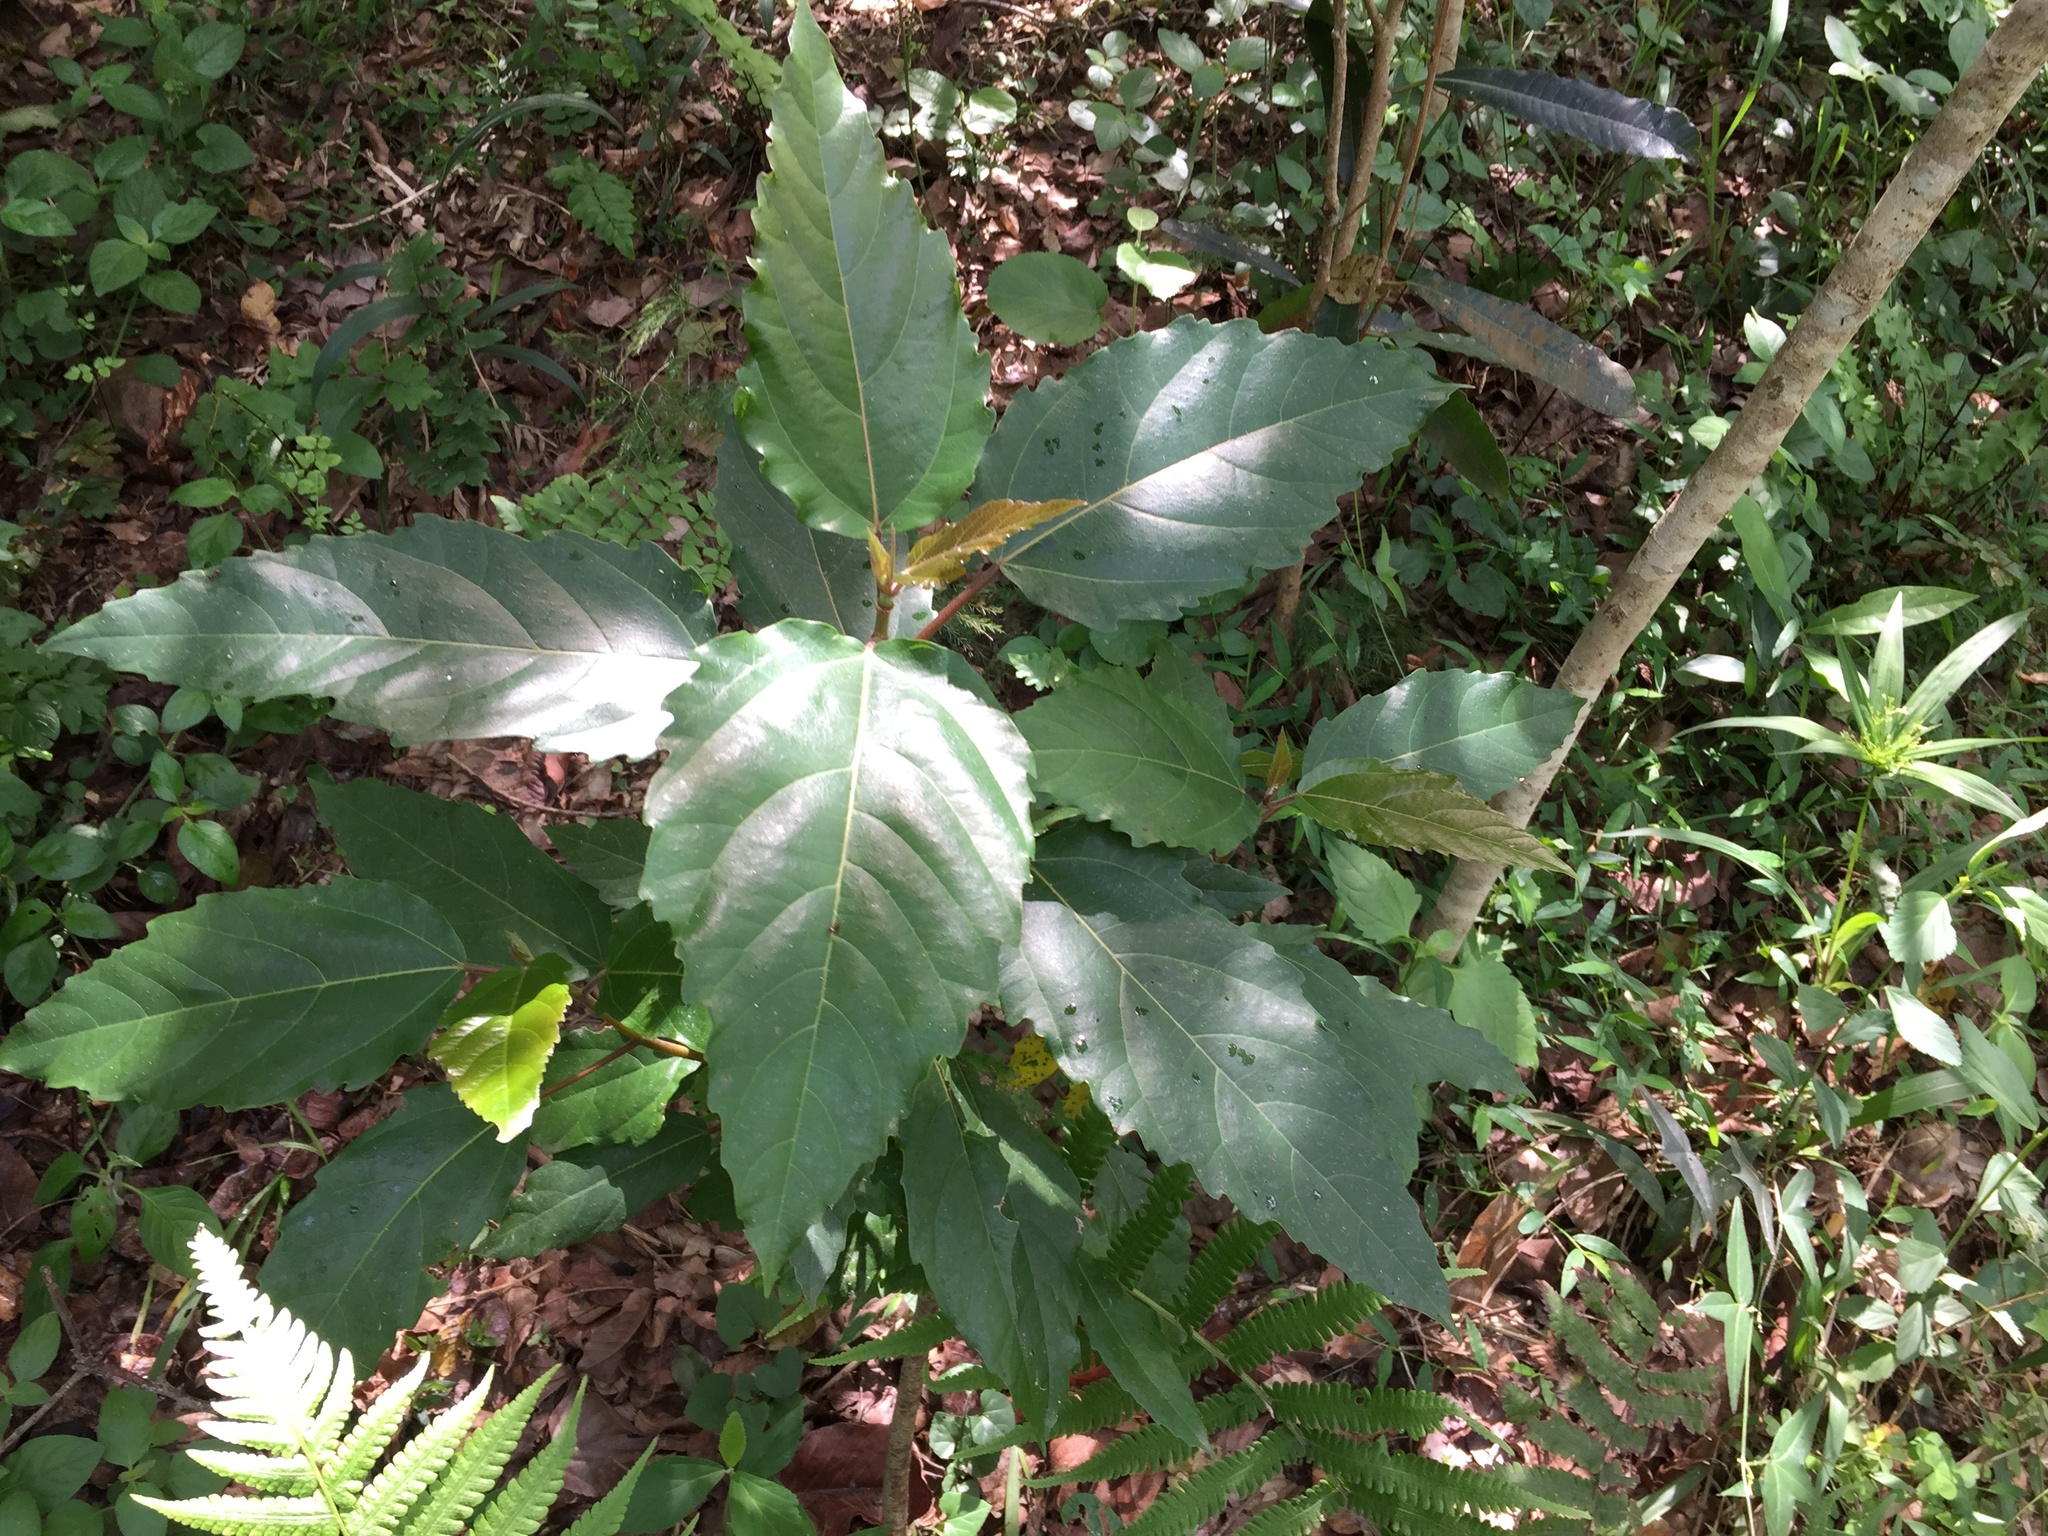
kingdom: Plantae
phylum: Tracheophyta
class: Magnoliopsida
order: Ericales
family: Primulaceae
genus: Maesa
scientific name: Maesa lanceolata
